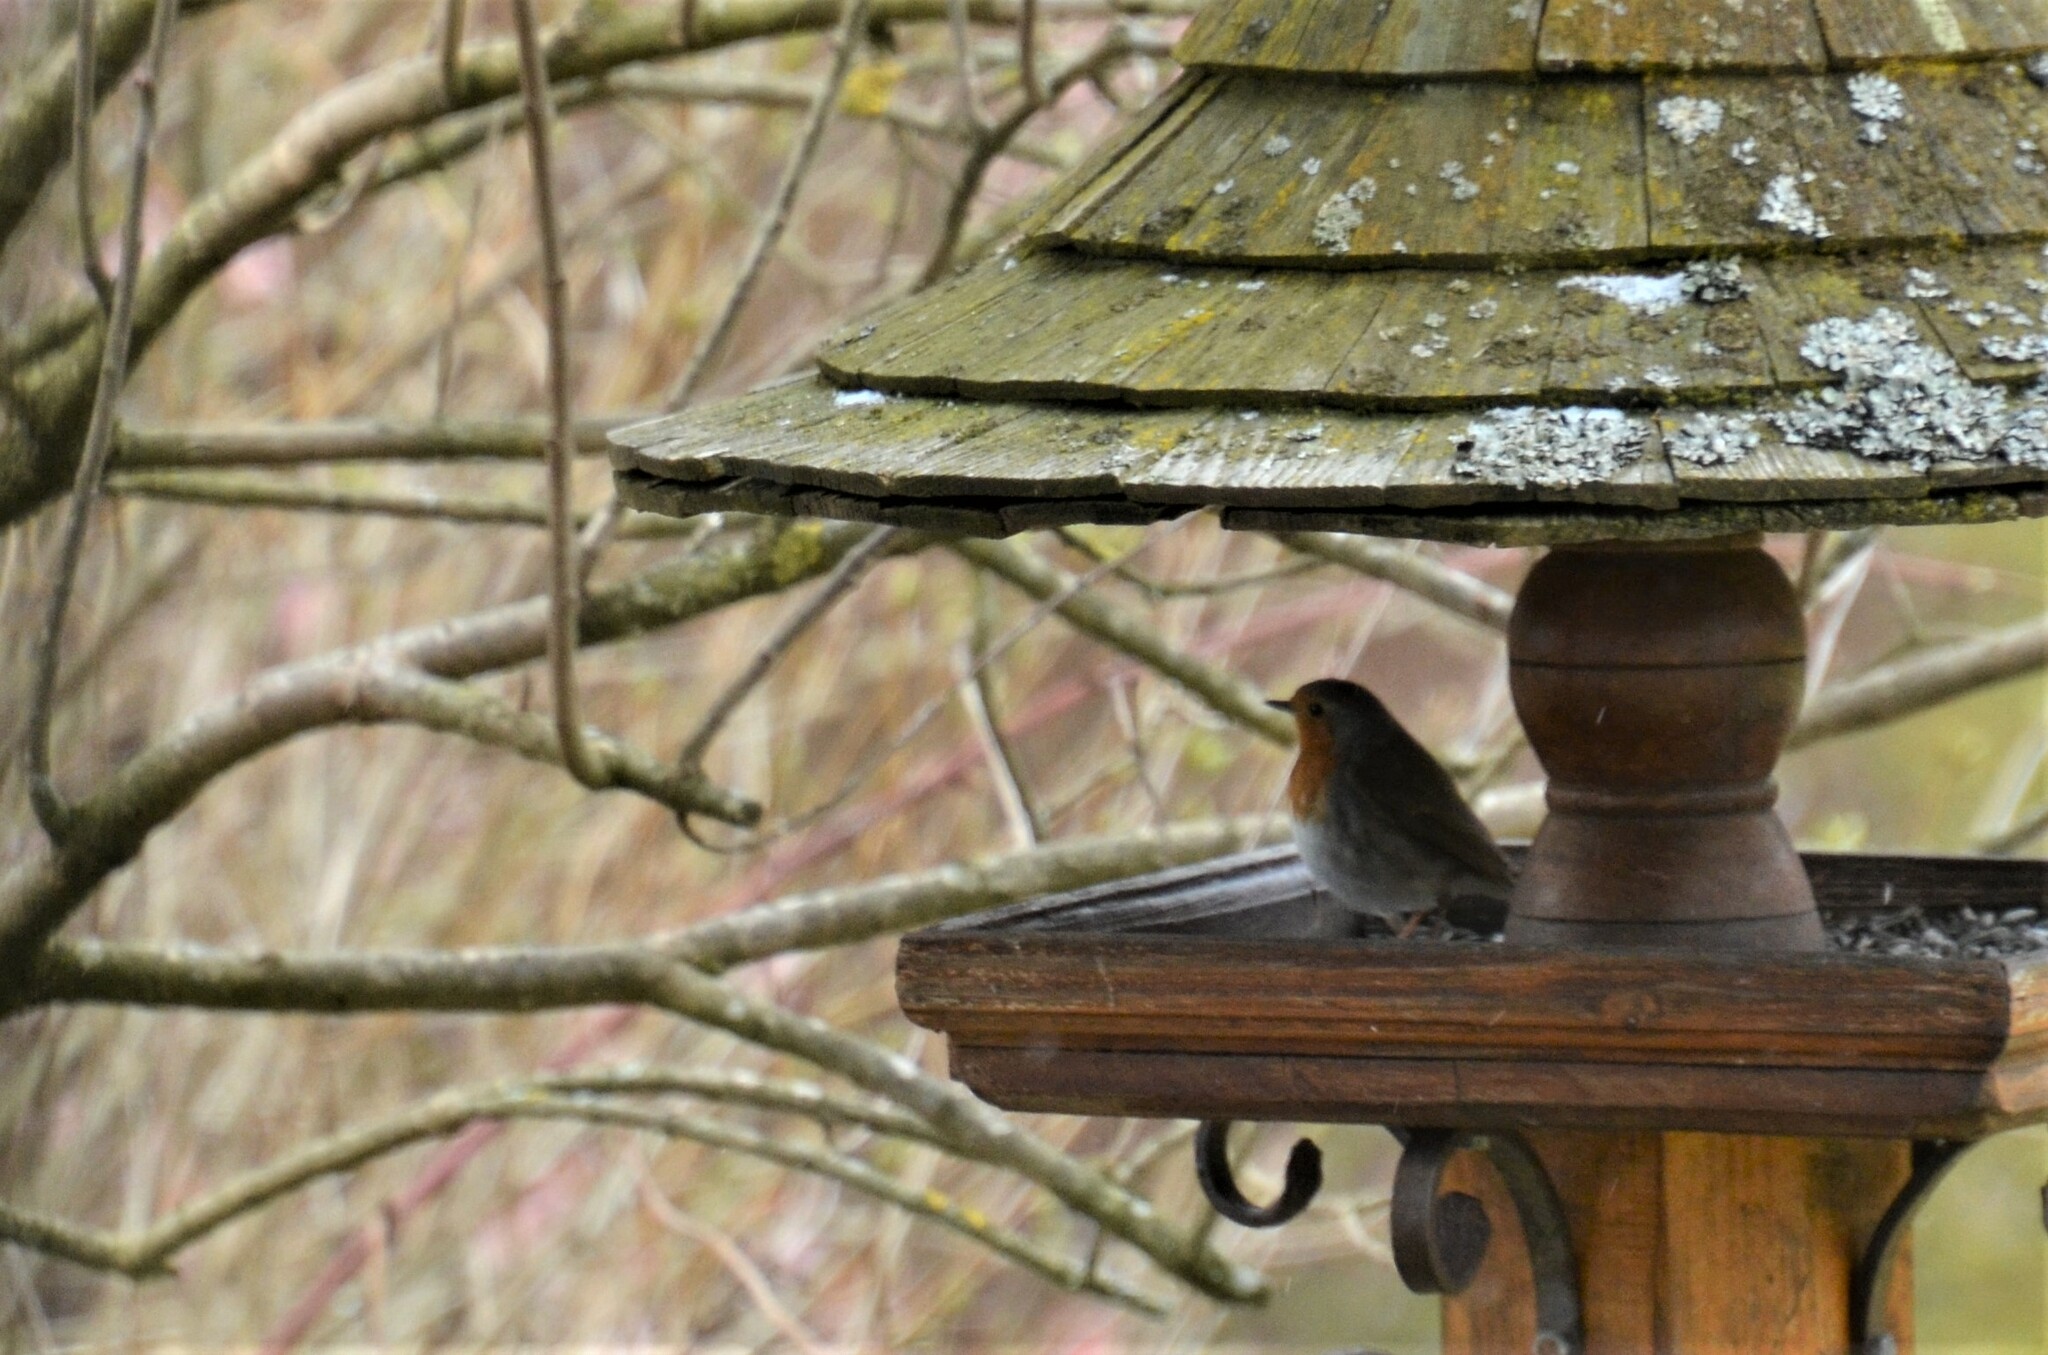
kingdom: Animalia
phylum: Chordata
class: Aves
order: Passeriformes
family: Muscicapidae
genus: Erithacus
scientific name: Erithacus rubecula
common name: European robin
